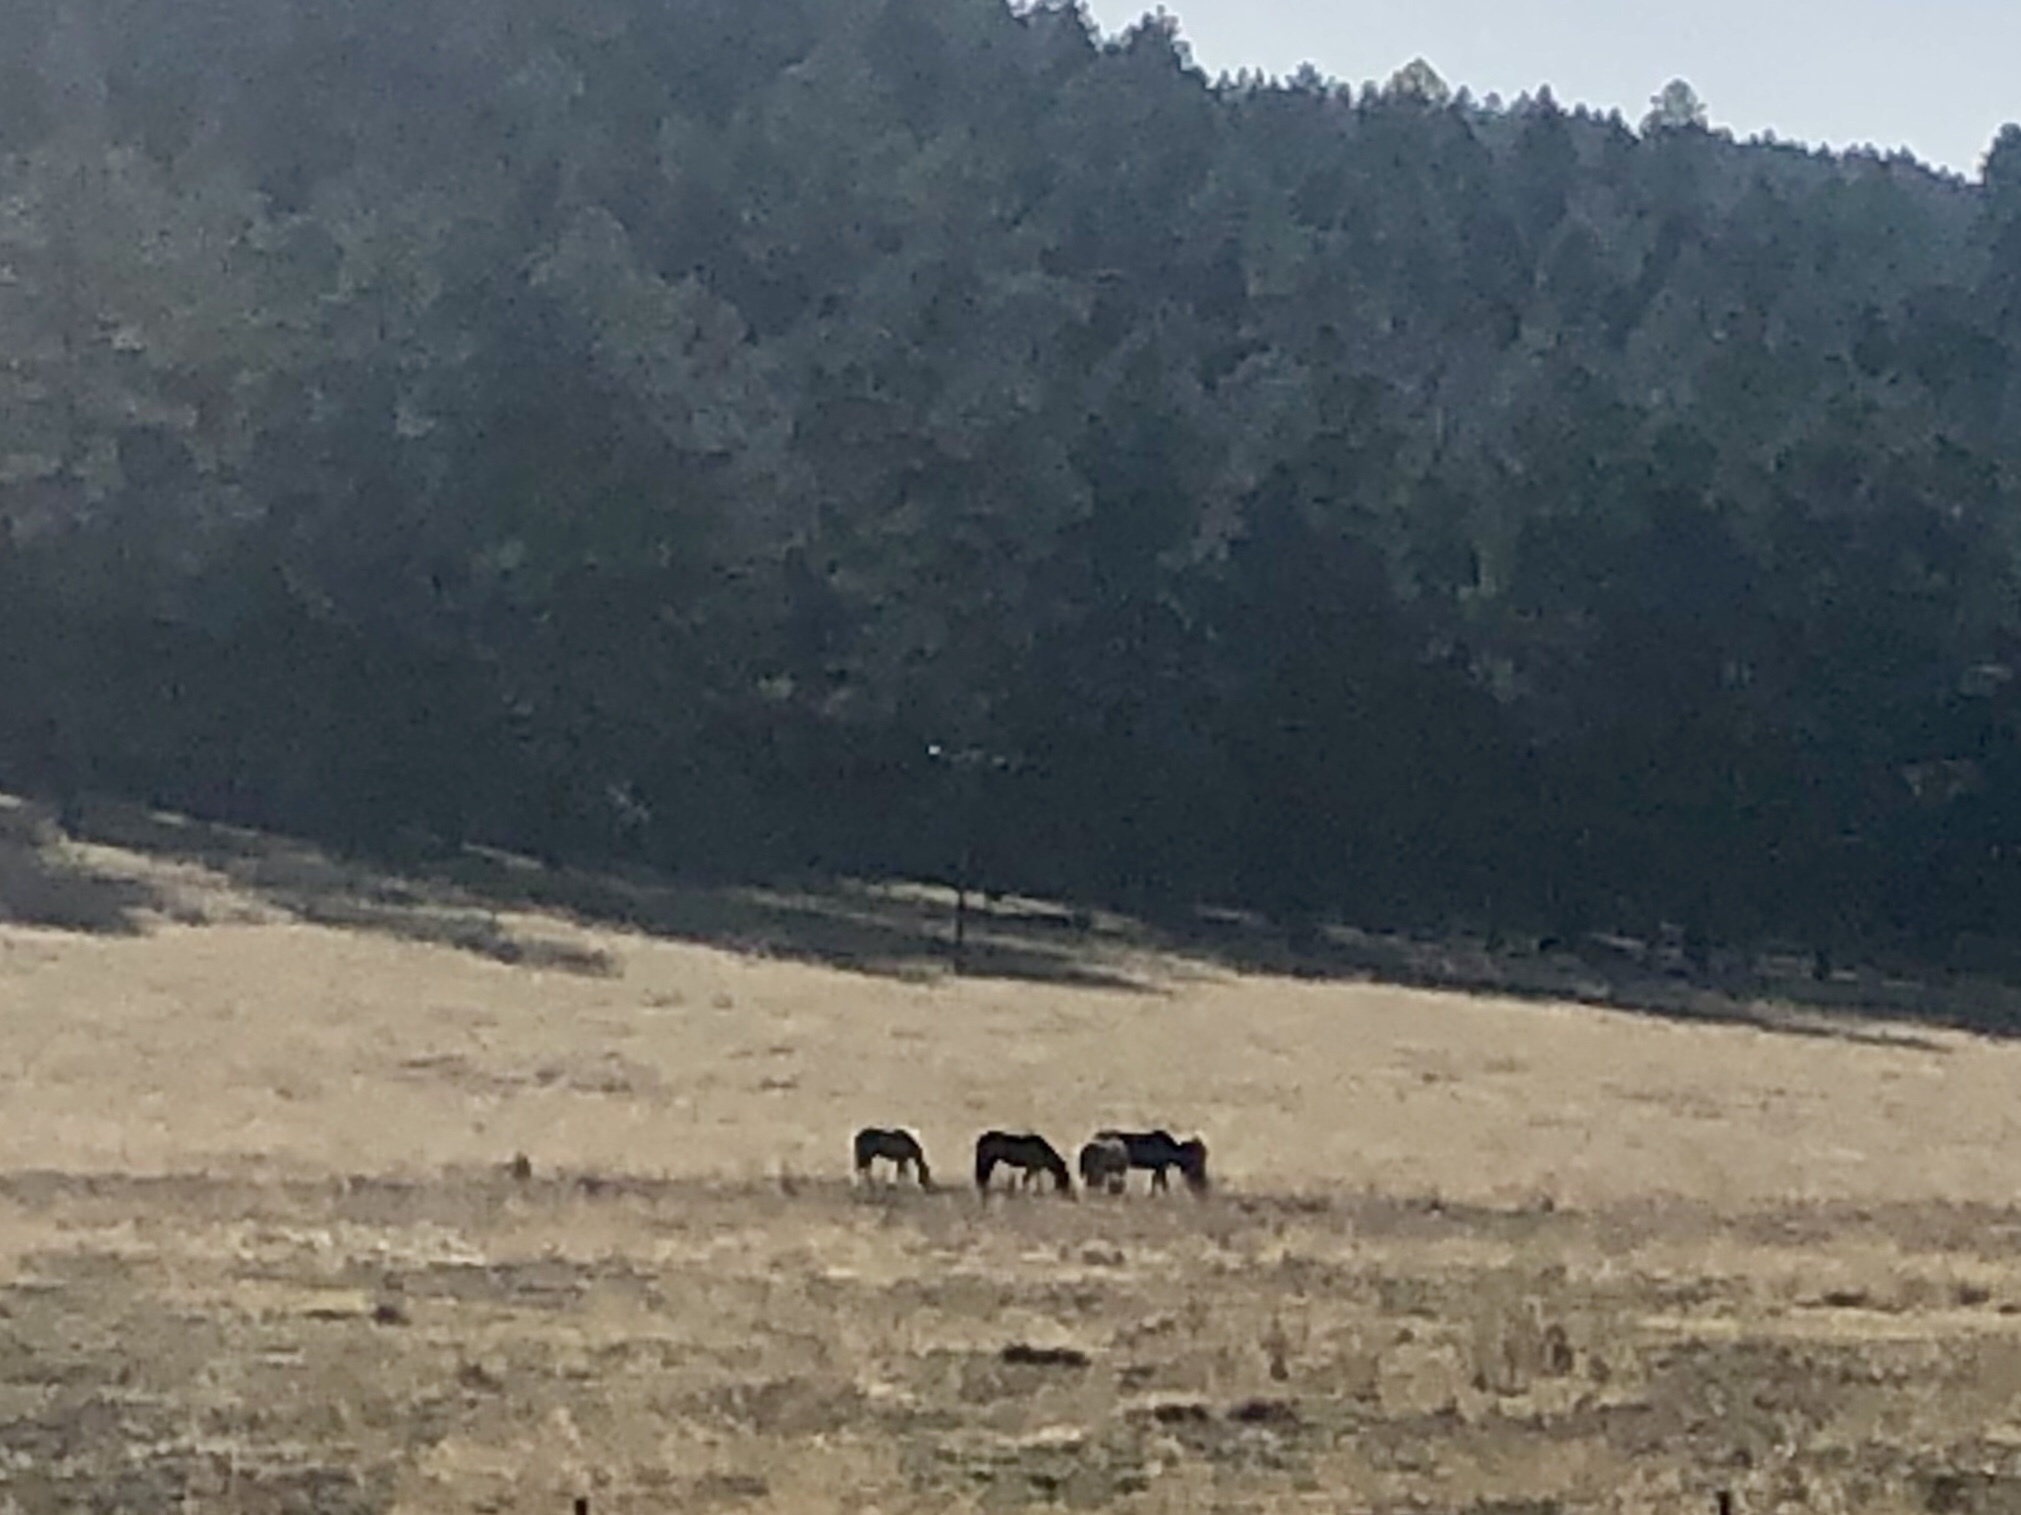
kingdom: Animalia
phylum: Chordata
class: Mammalia
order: Perissodactyla
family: Equidae
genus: Equus
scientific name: Equus caballus
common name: Horse
